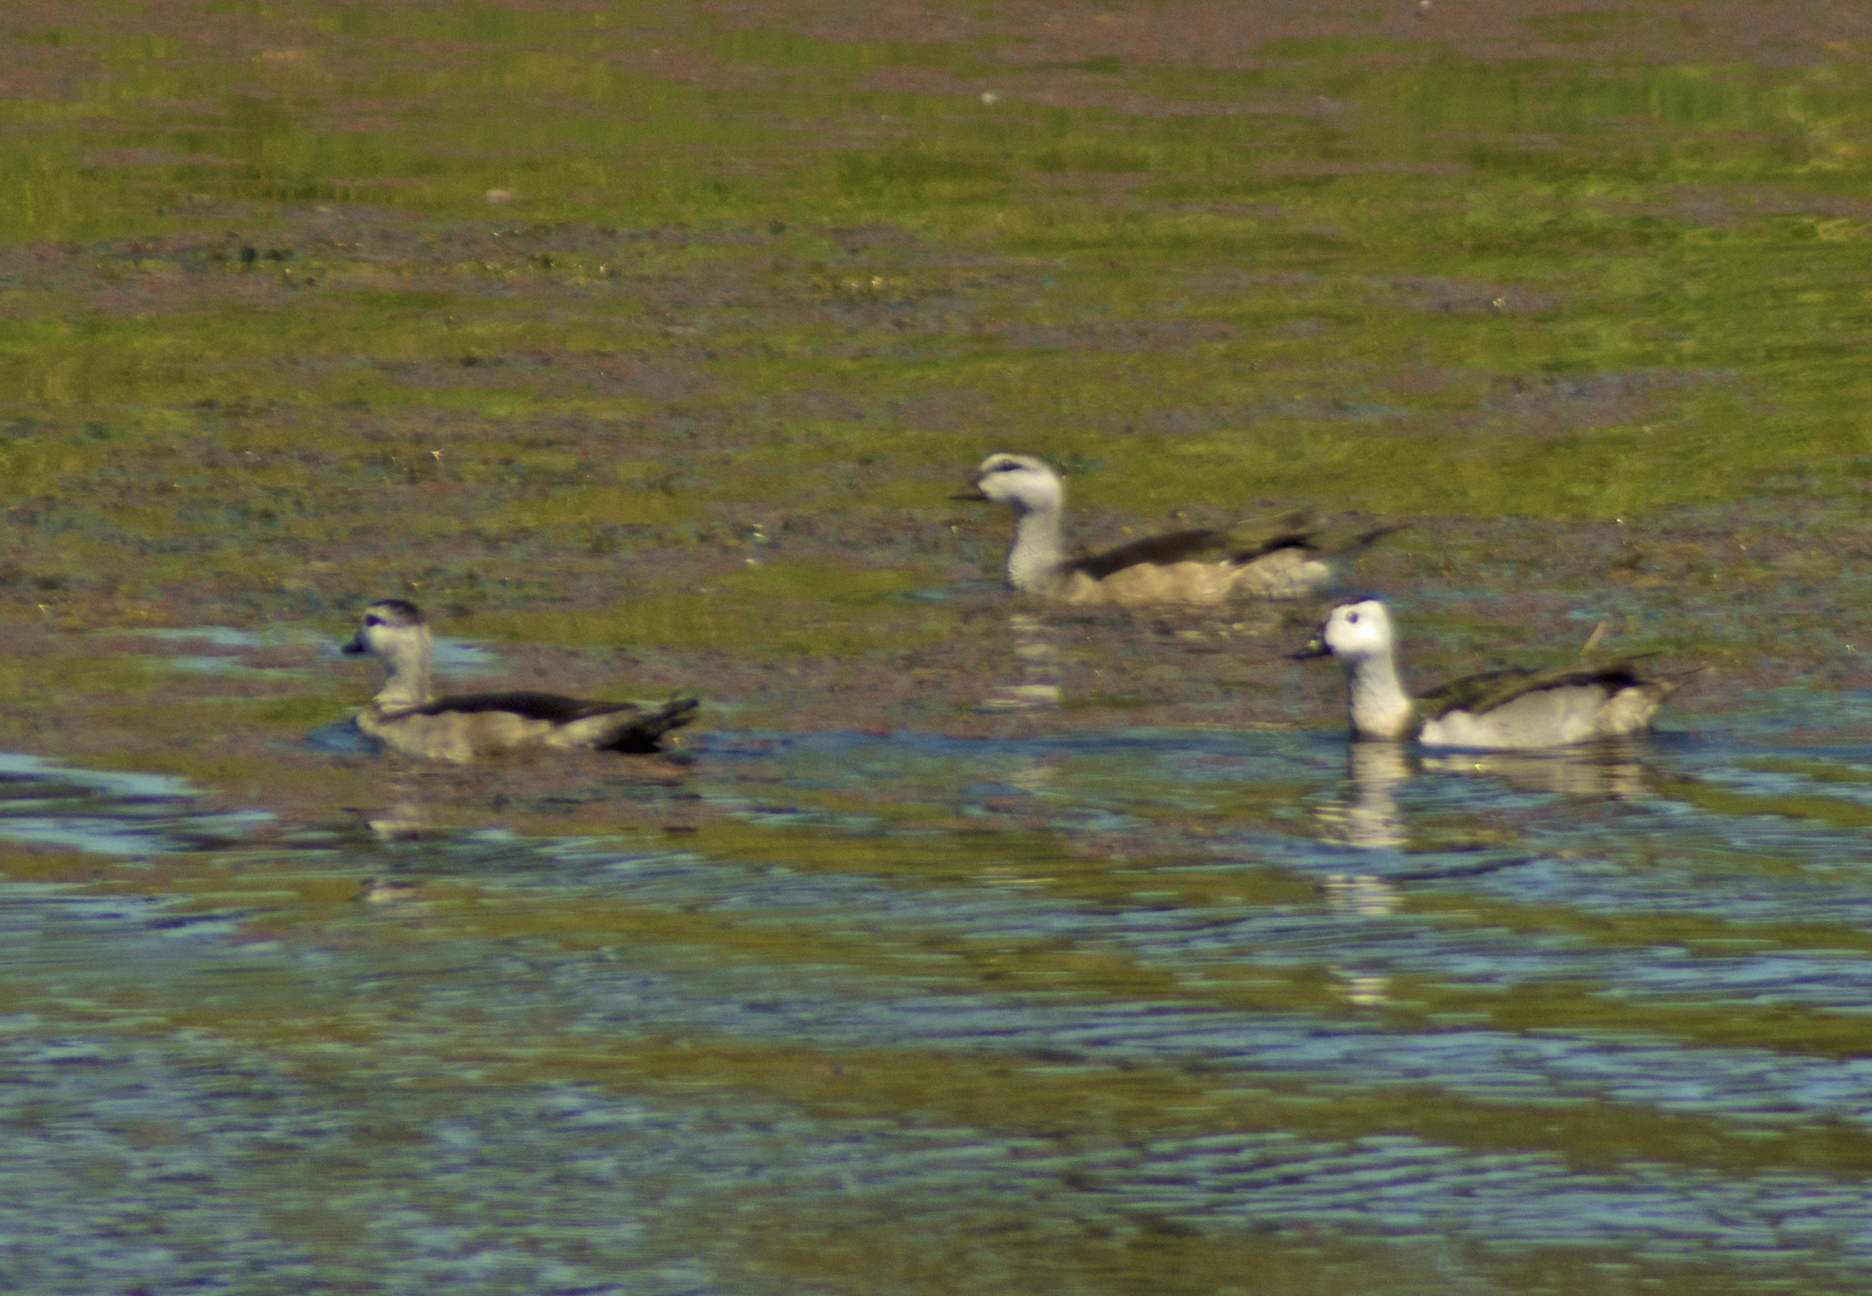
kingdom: Animalia
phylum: Chordata
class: Aves
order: Anseriformes
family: Anatidae
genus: Nettapus
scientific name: Nettapus coromandelianus
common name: Cotton pygmy-goose
